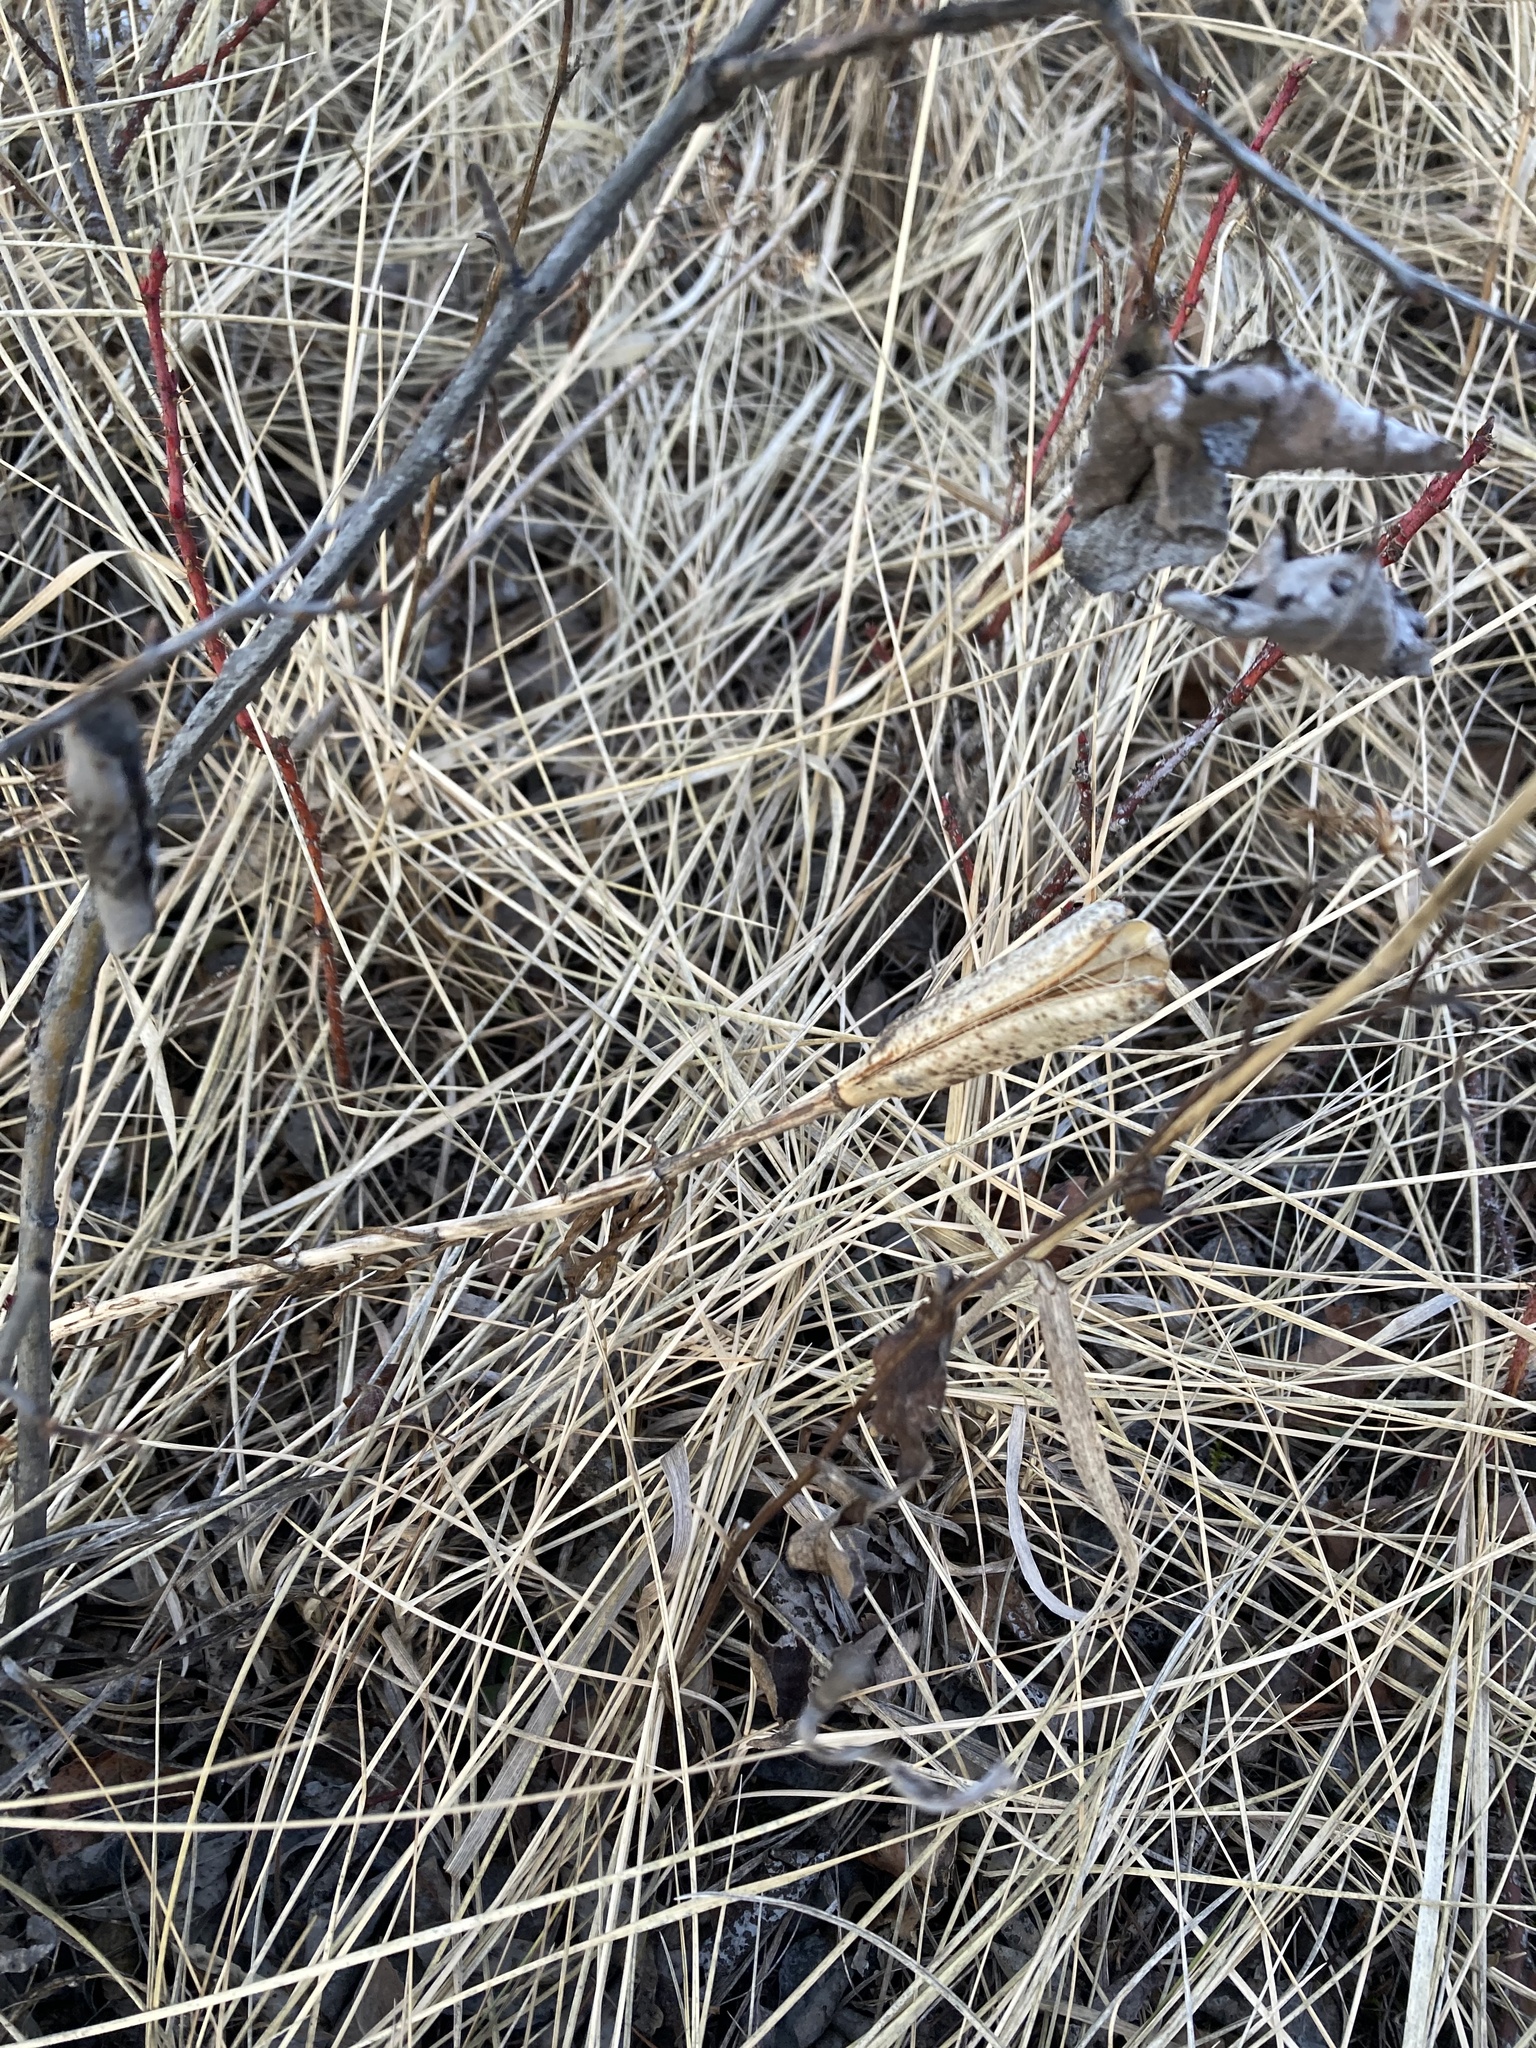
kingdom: Plantae
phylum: Tracheophyta
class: Liliopsida
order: Liliales
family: Liliaceae
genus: Lilium
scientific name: Lilium philadelphicum
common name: Red lily
